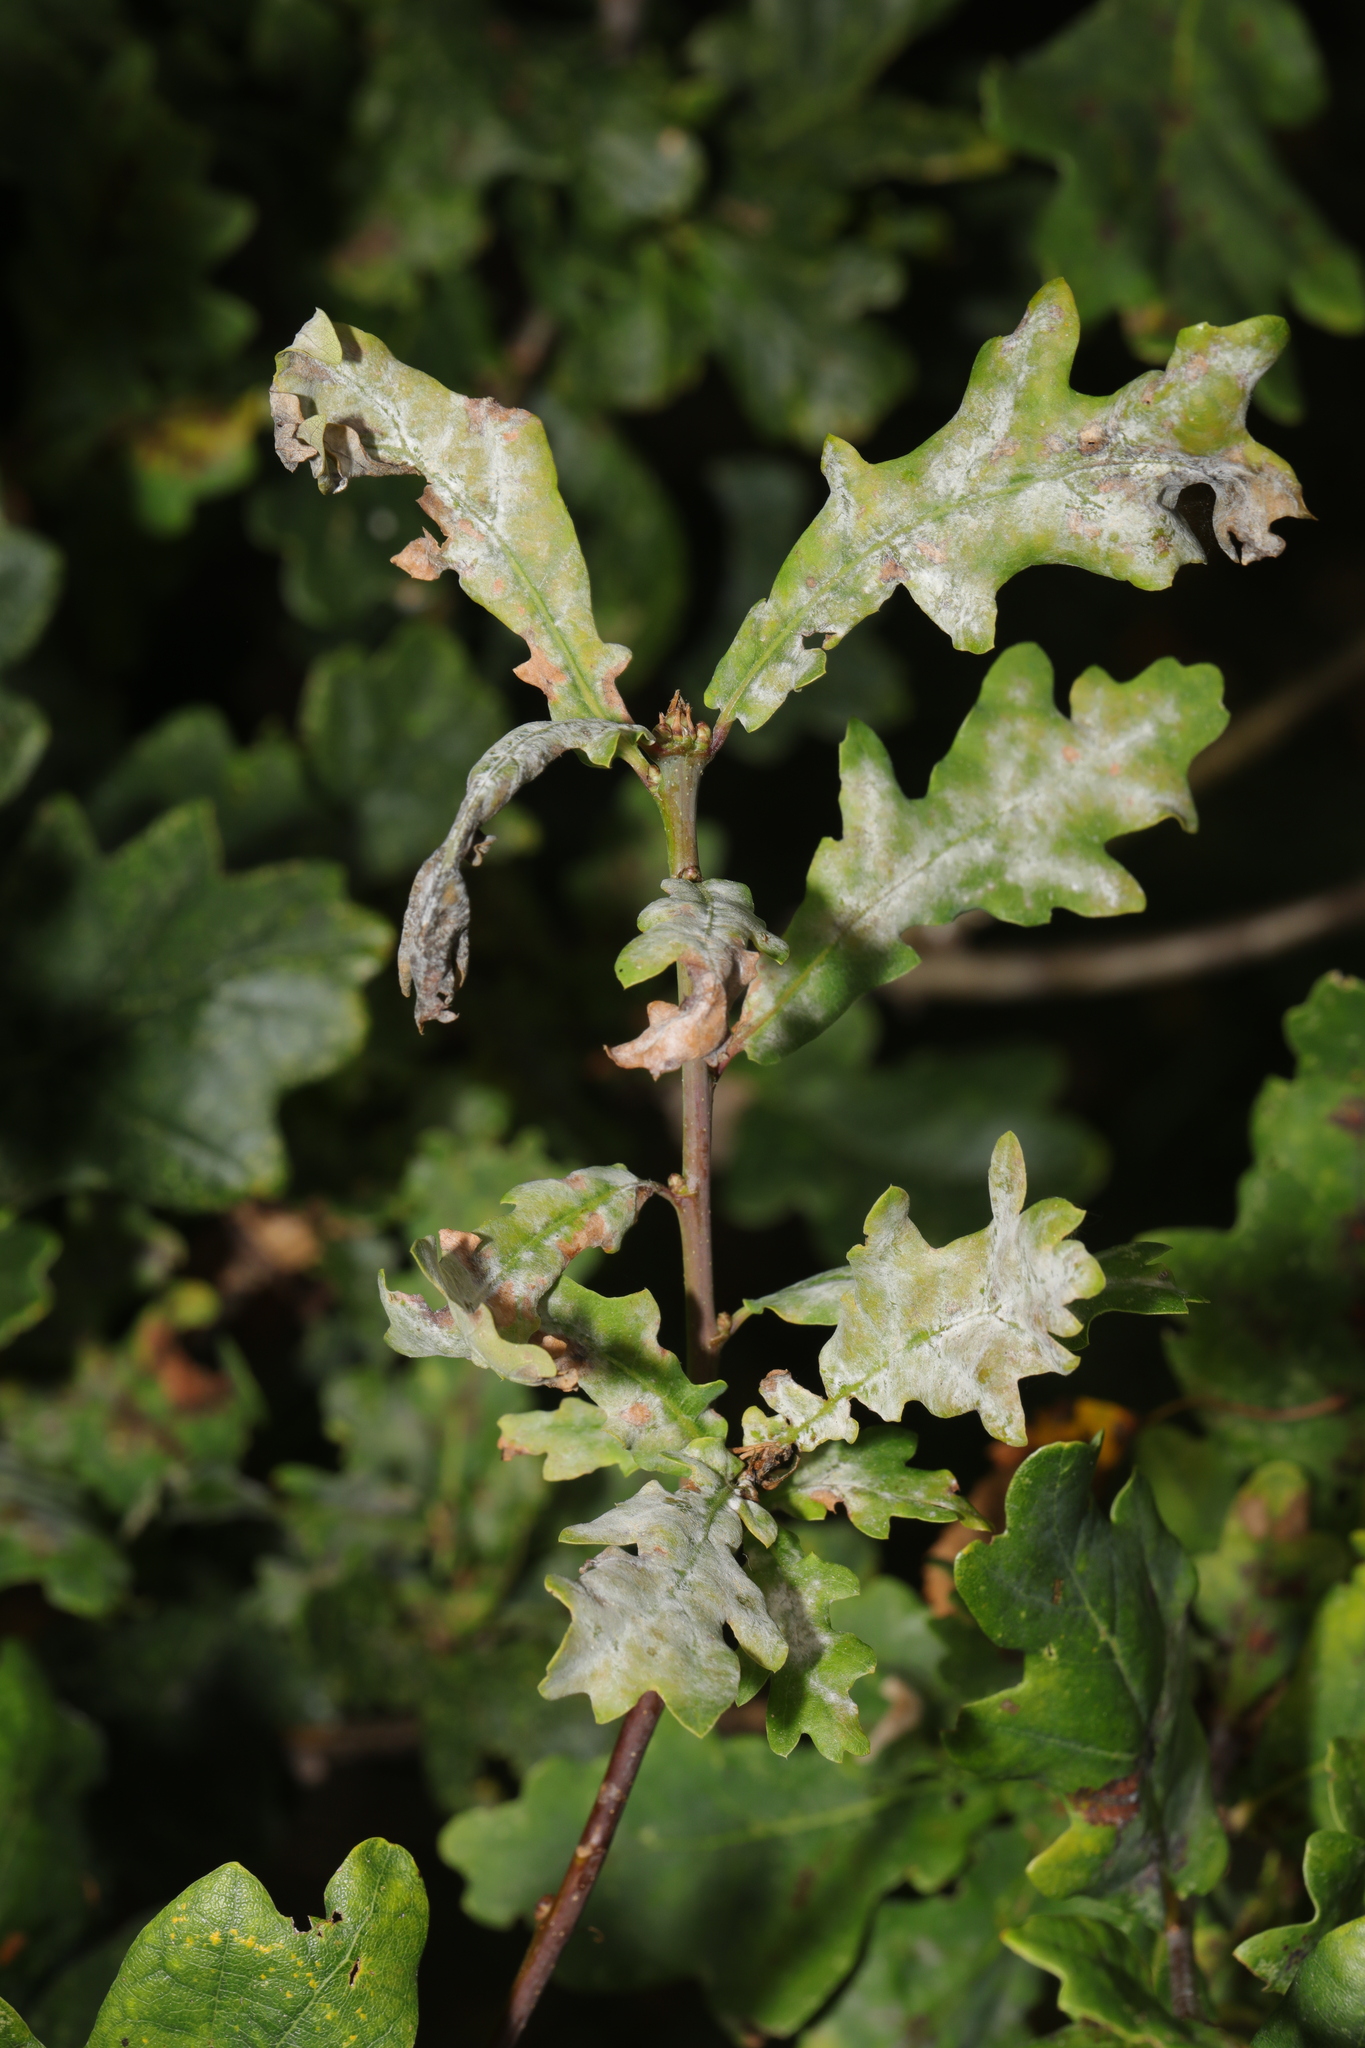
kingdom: Fungi
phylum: Ascomycota
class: Leotiomycetes
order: Helotiales
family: Erysiphaceae
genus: Erysiphe
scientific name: Erysiphe alphitoides
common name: Oak mildew
